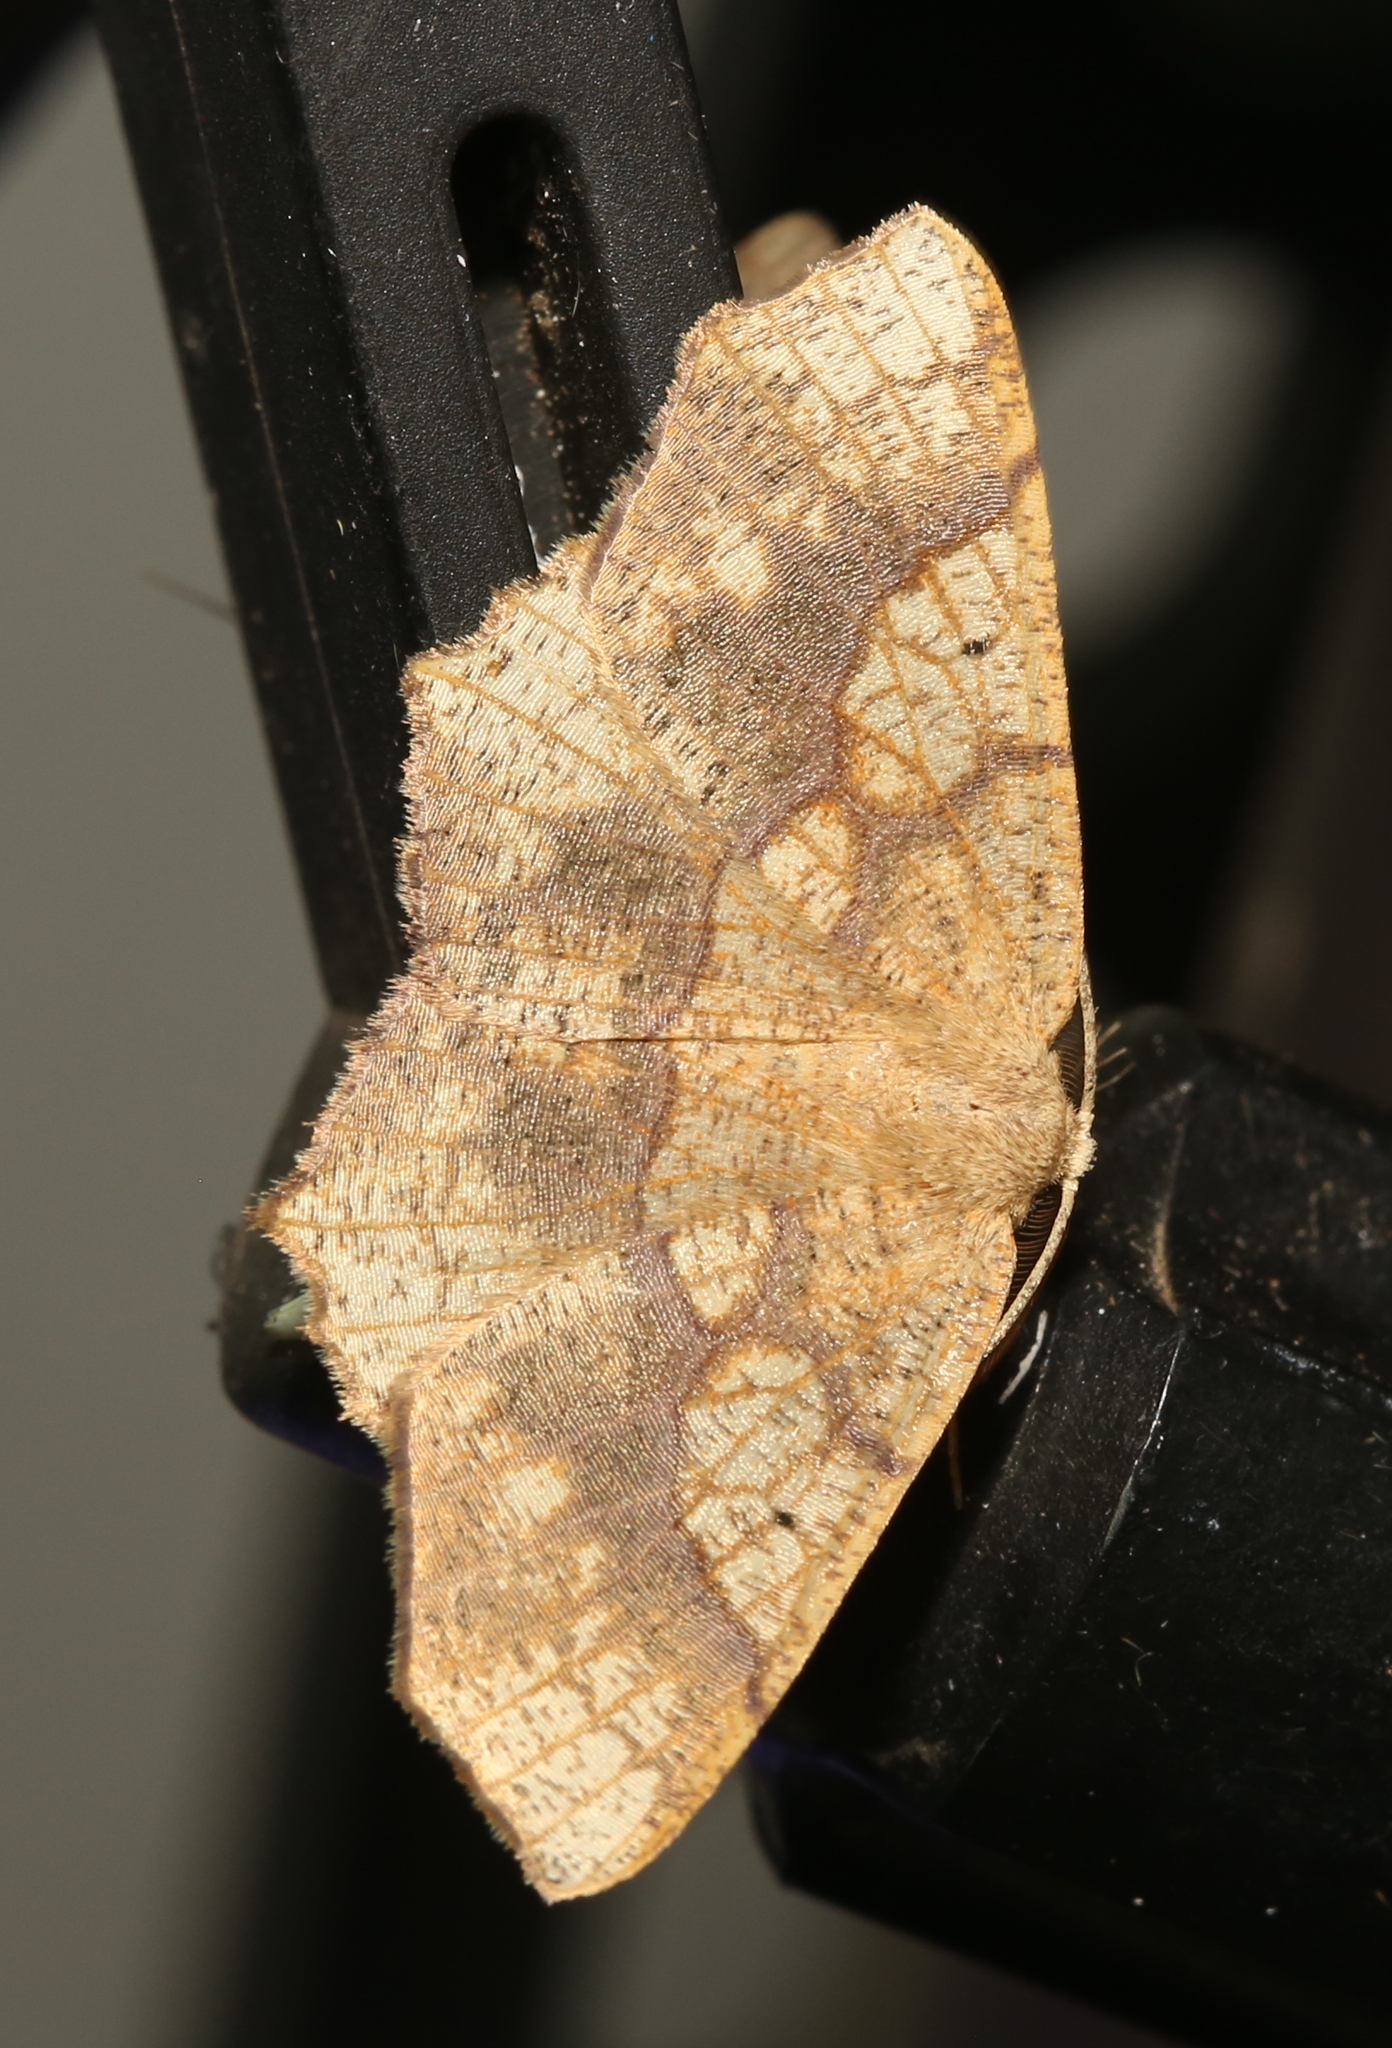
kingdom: Animalia
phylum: Arthropoda
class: Insecta
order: Lepidoptera
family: Geometridae
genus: Besma
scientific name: Besma quercivoraria
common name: Oak besma
